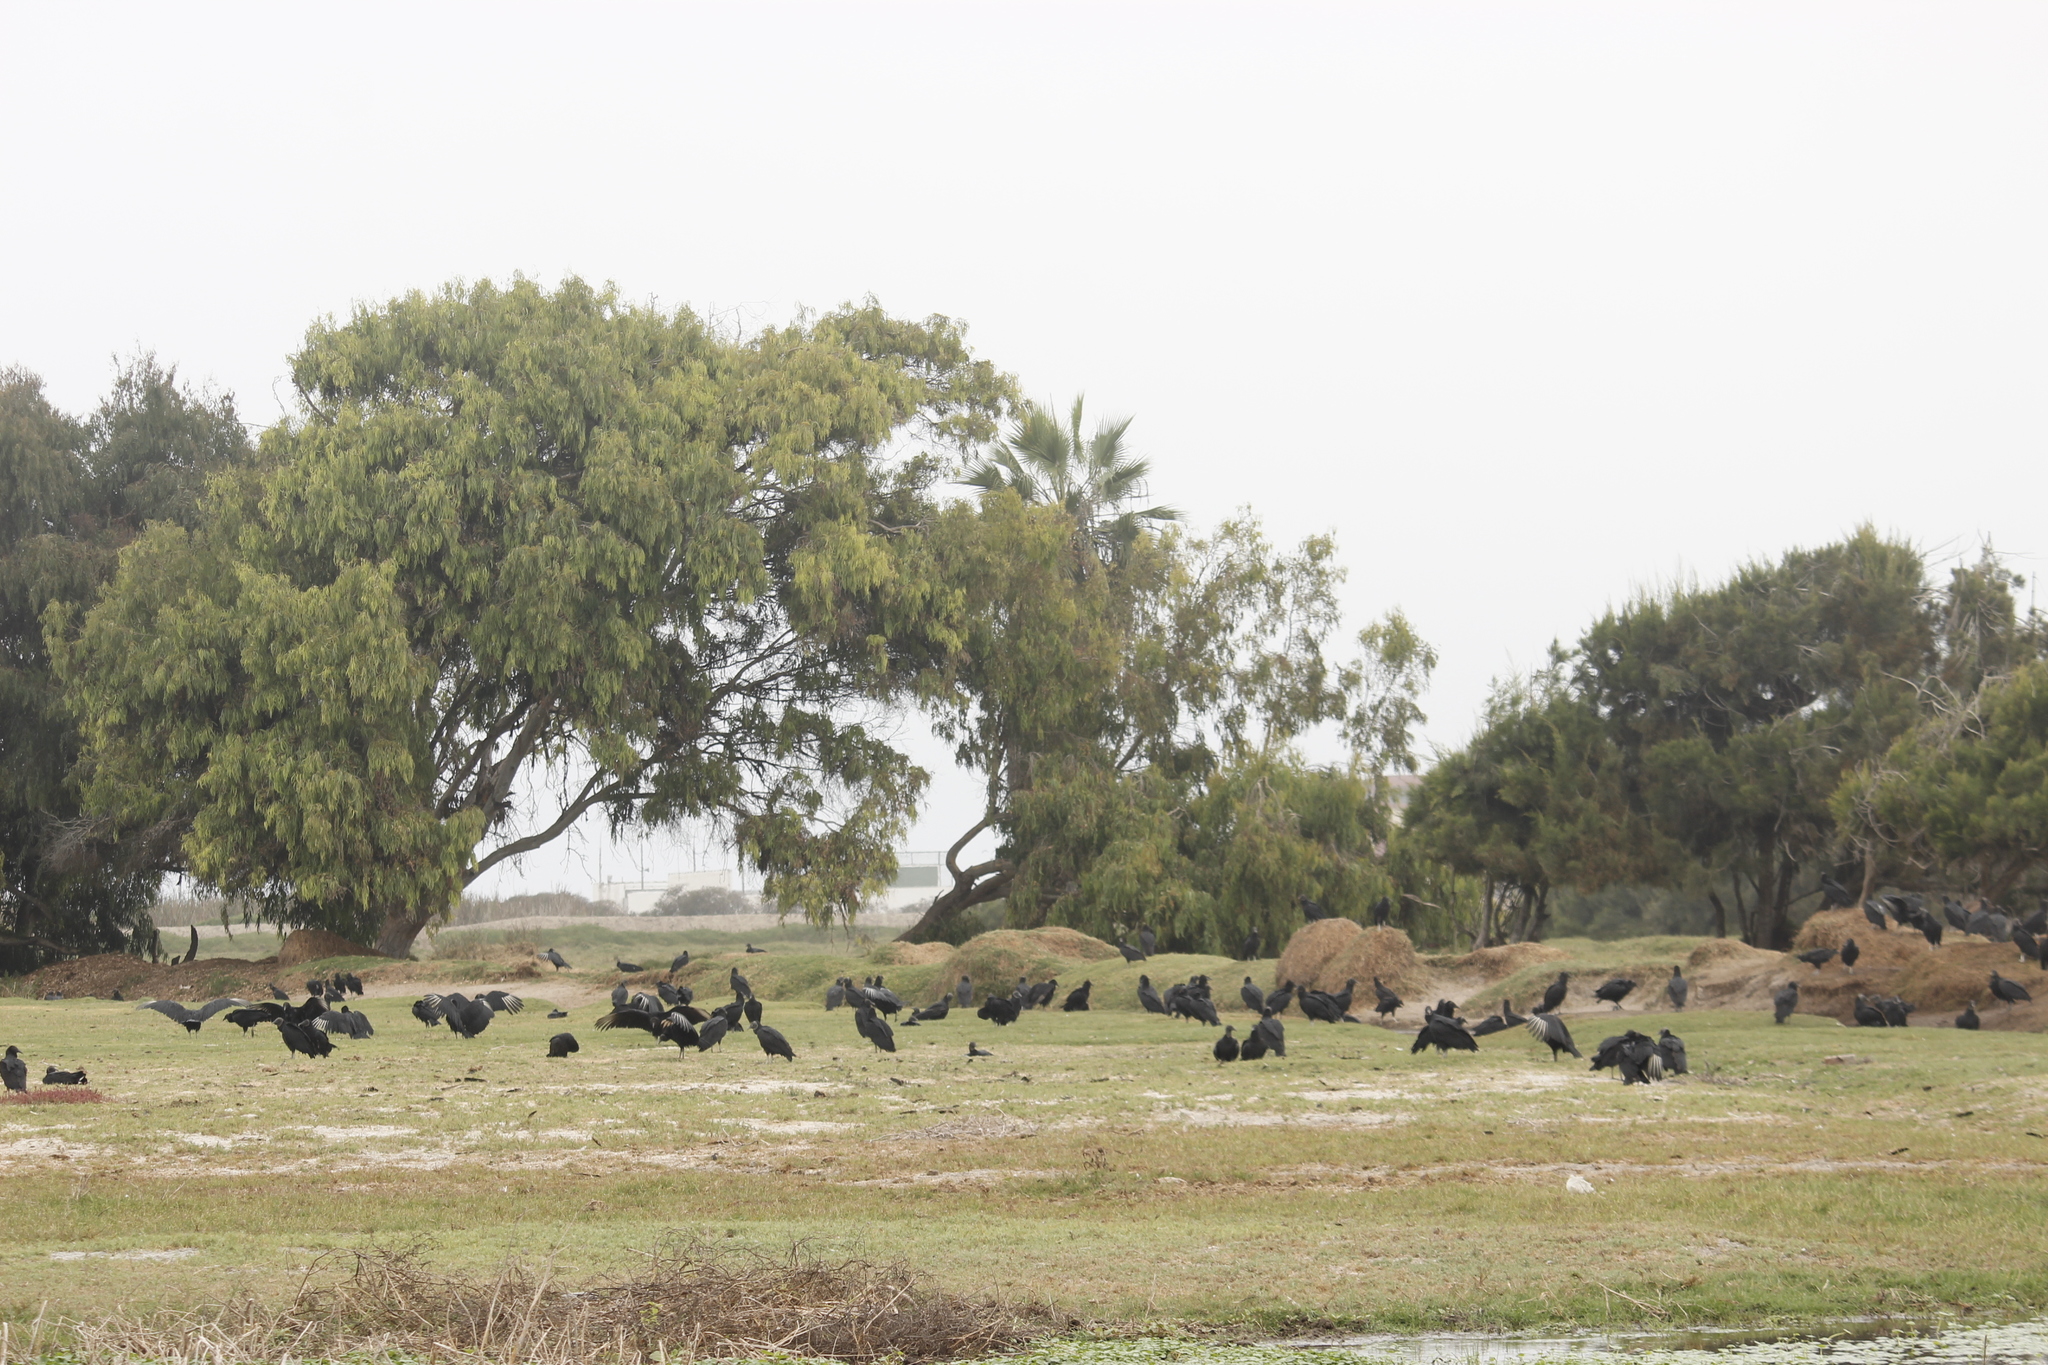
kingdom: Animalia
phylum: Chordata
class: Aves
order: Accipitriformes
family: Cathartidae
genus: Coragyps
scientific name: Coragyps atratus
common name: Black vulture
